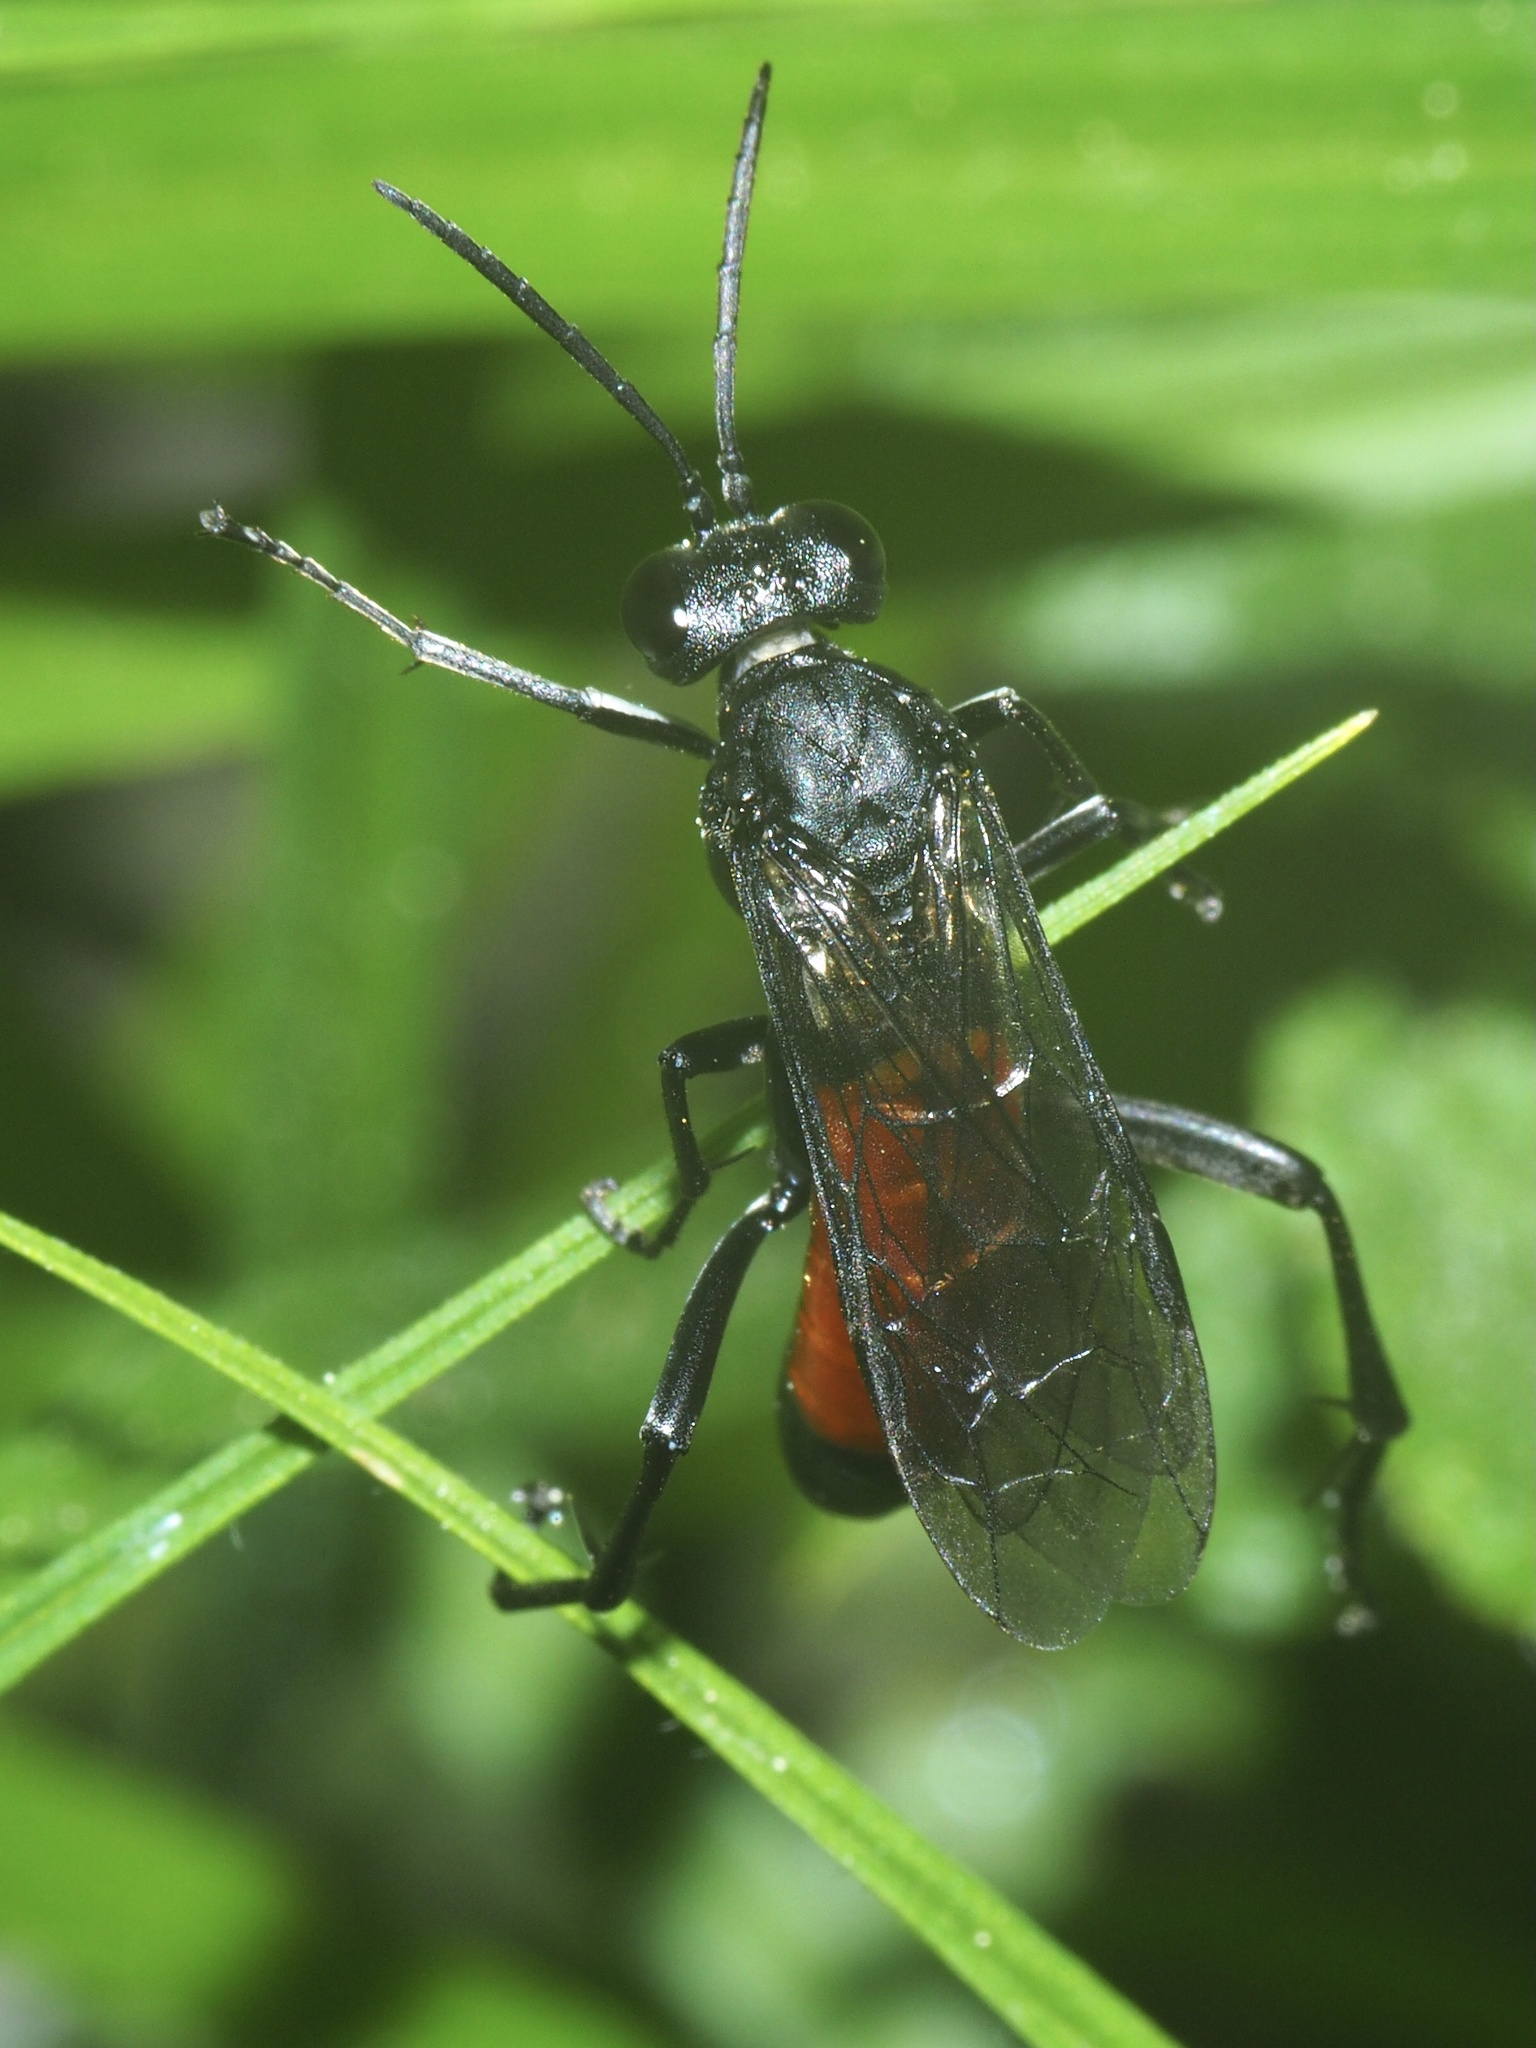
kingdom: Animalia
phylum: Arthropoda
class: Insecta
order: Hymenoptera
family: Tenthredinidae
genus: Macrophya
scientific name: Macrophya annulata
